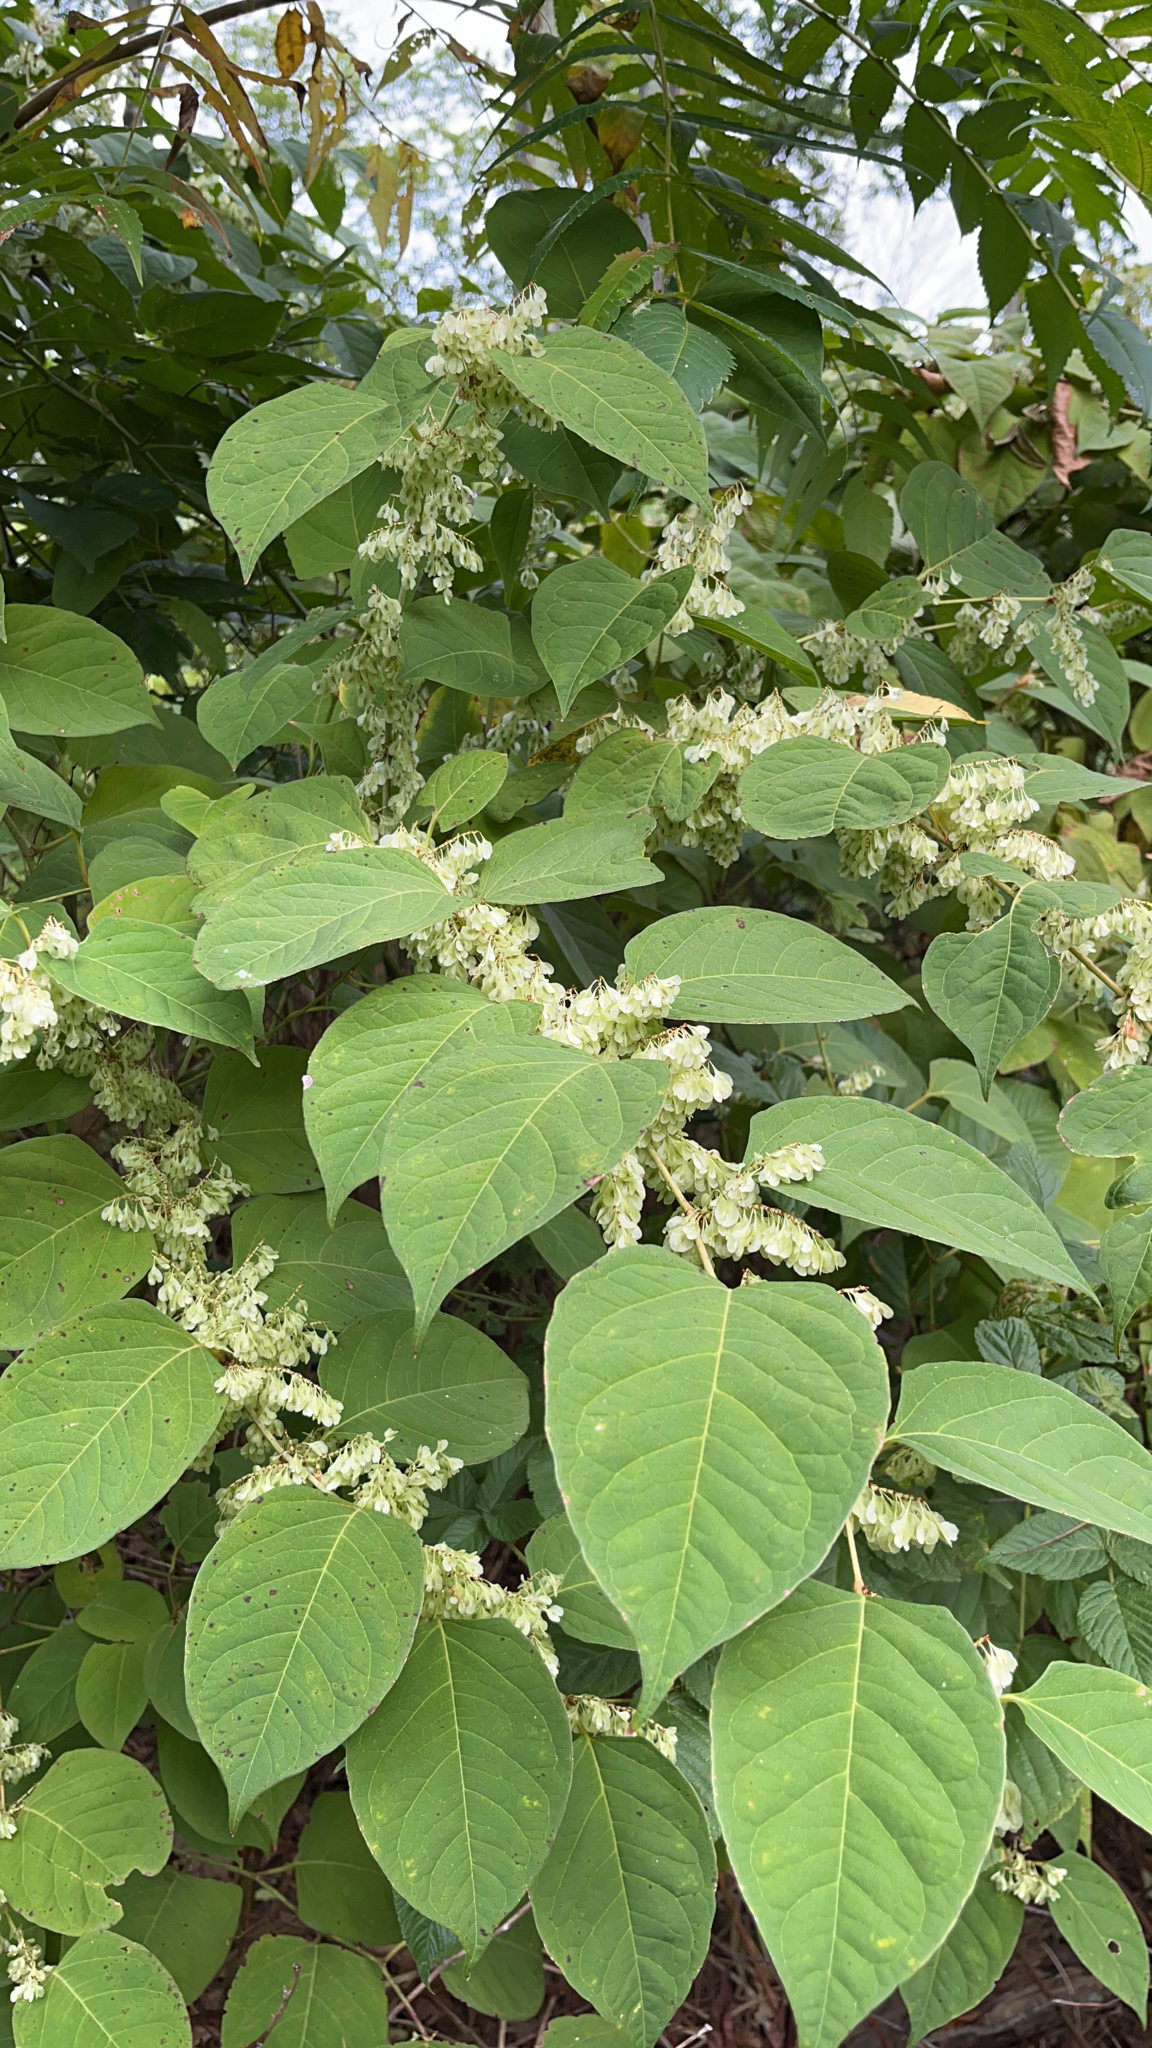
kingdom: Plantae
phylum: Tracheophyta
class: Magnoliopsida
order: Caryophyllales
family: Polygonaceae
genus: Reynoutria
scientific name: Reynoutria japonica
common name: Japanese knotweed
